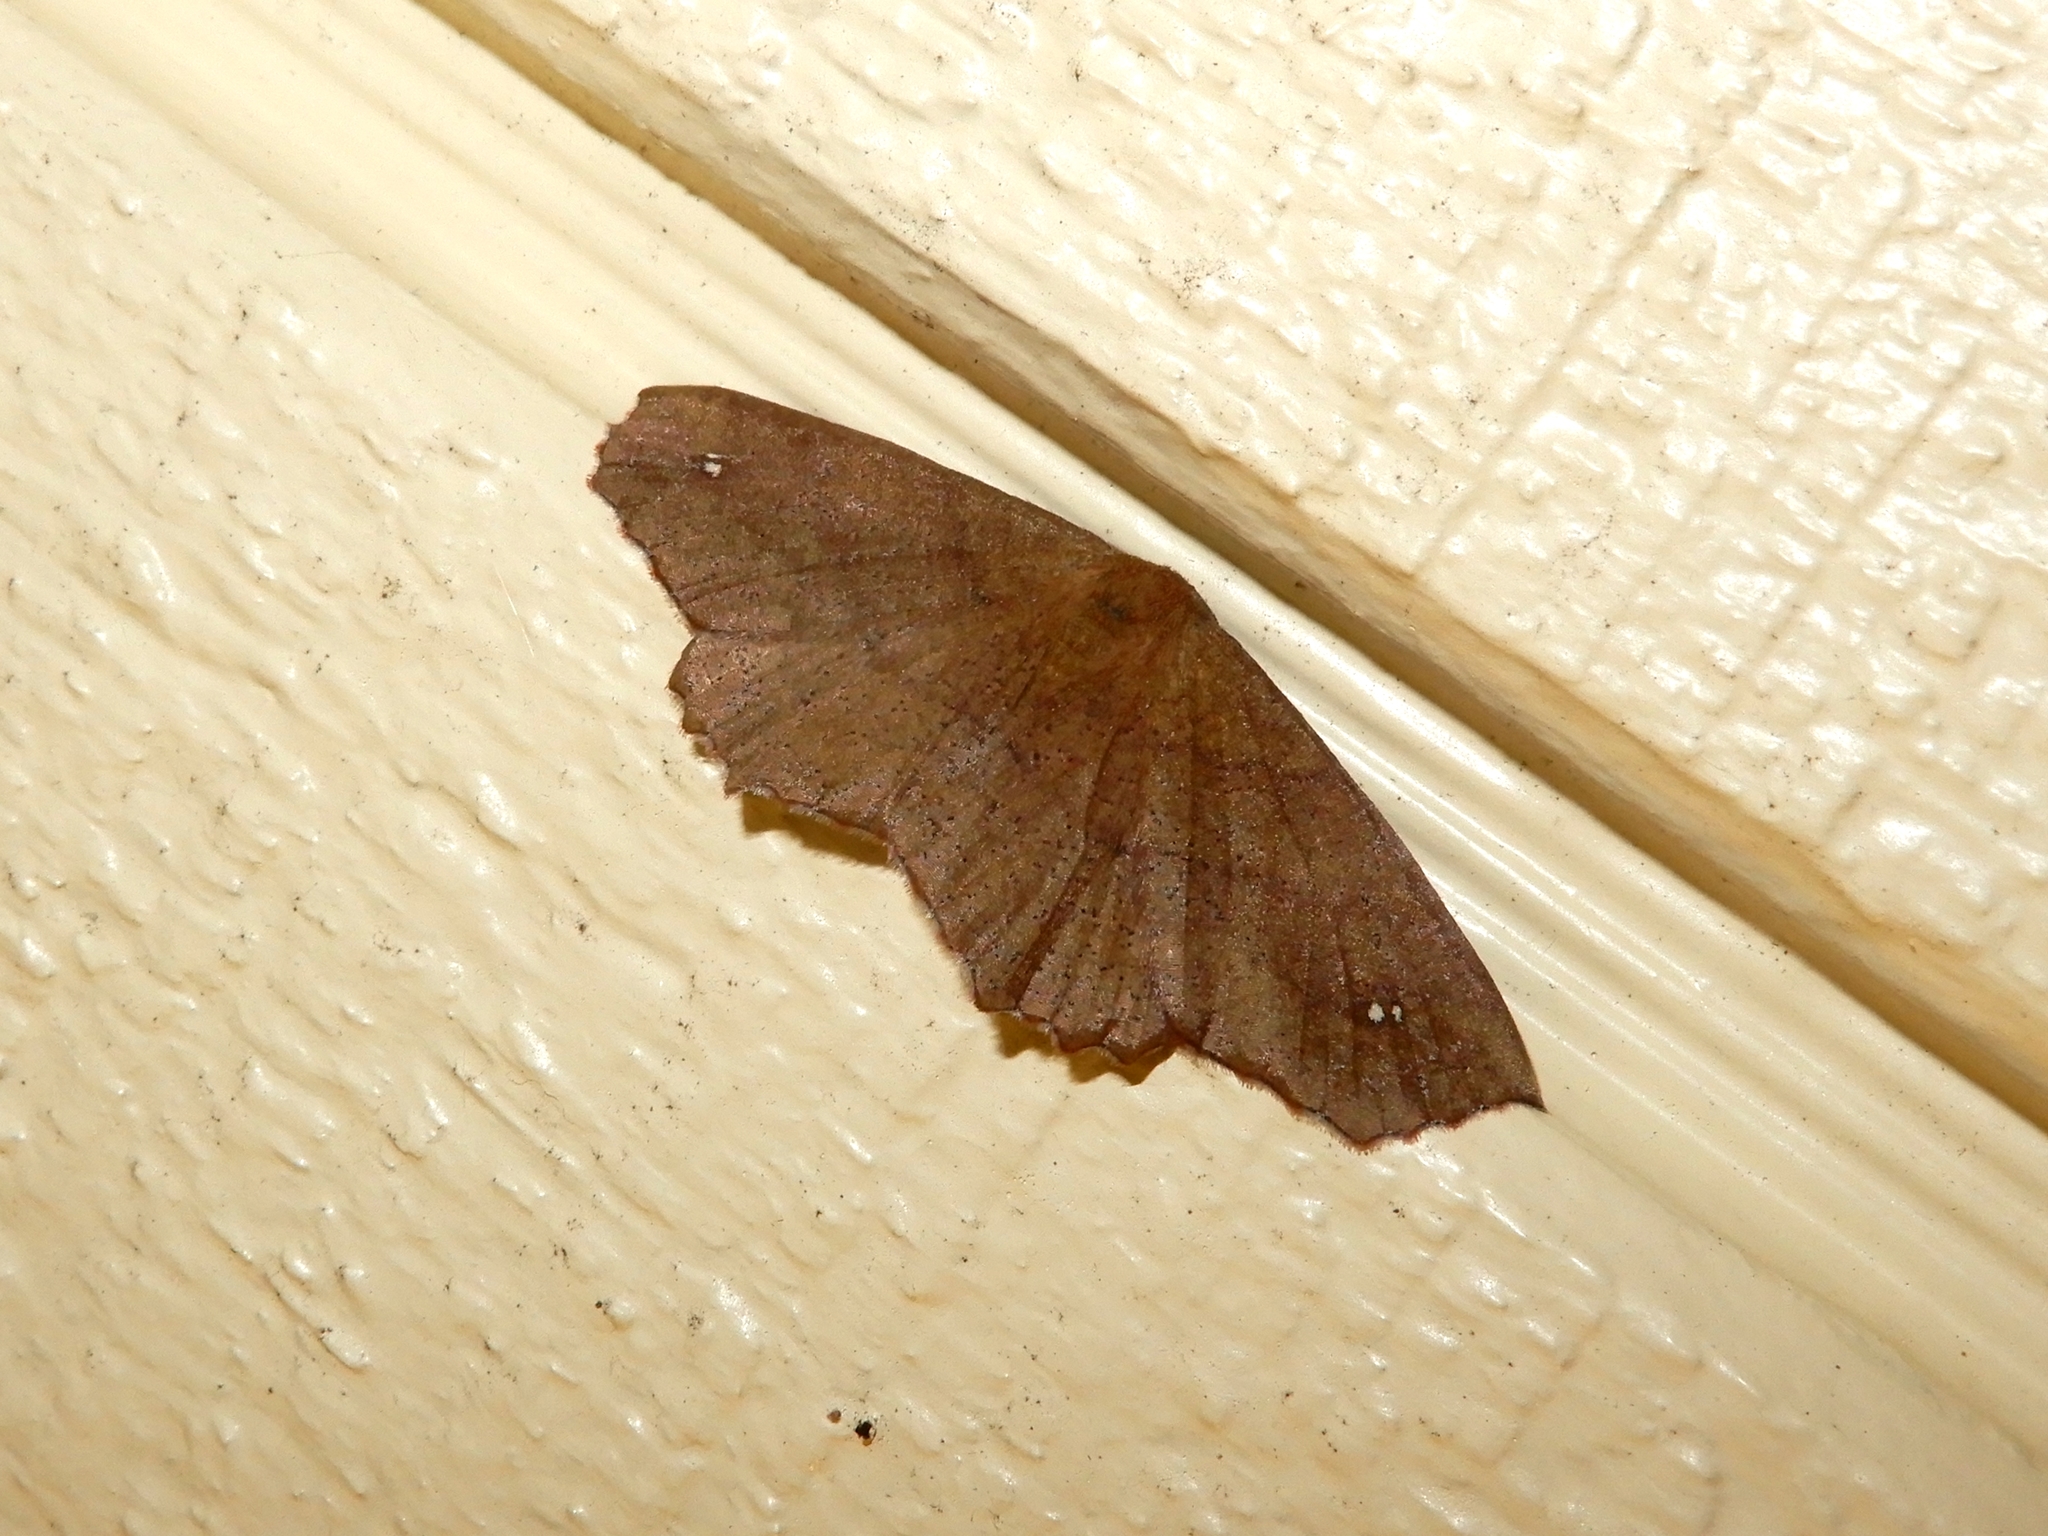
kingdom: Animalia
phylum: Arthropoda
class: Insecta
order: Lepidoptera
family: Geometridae
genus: Xyridacma
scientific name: Xyridacma ustaria
